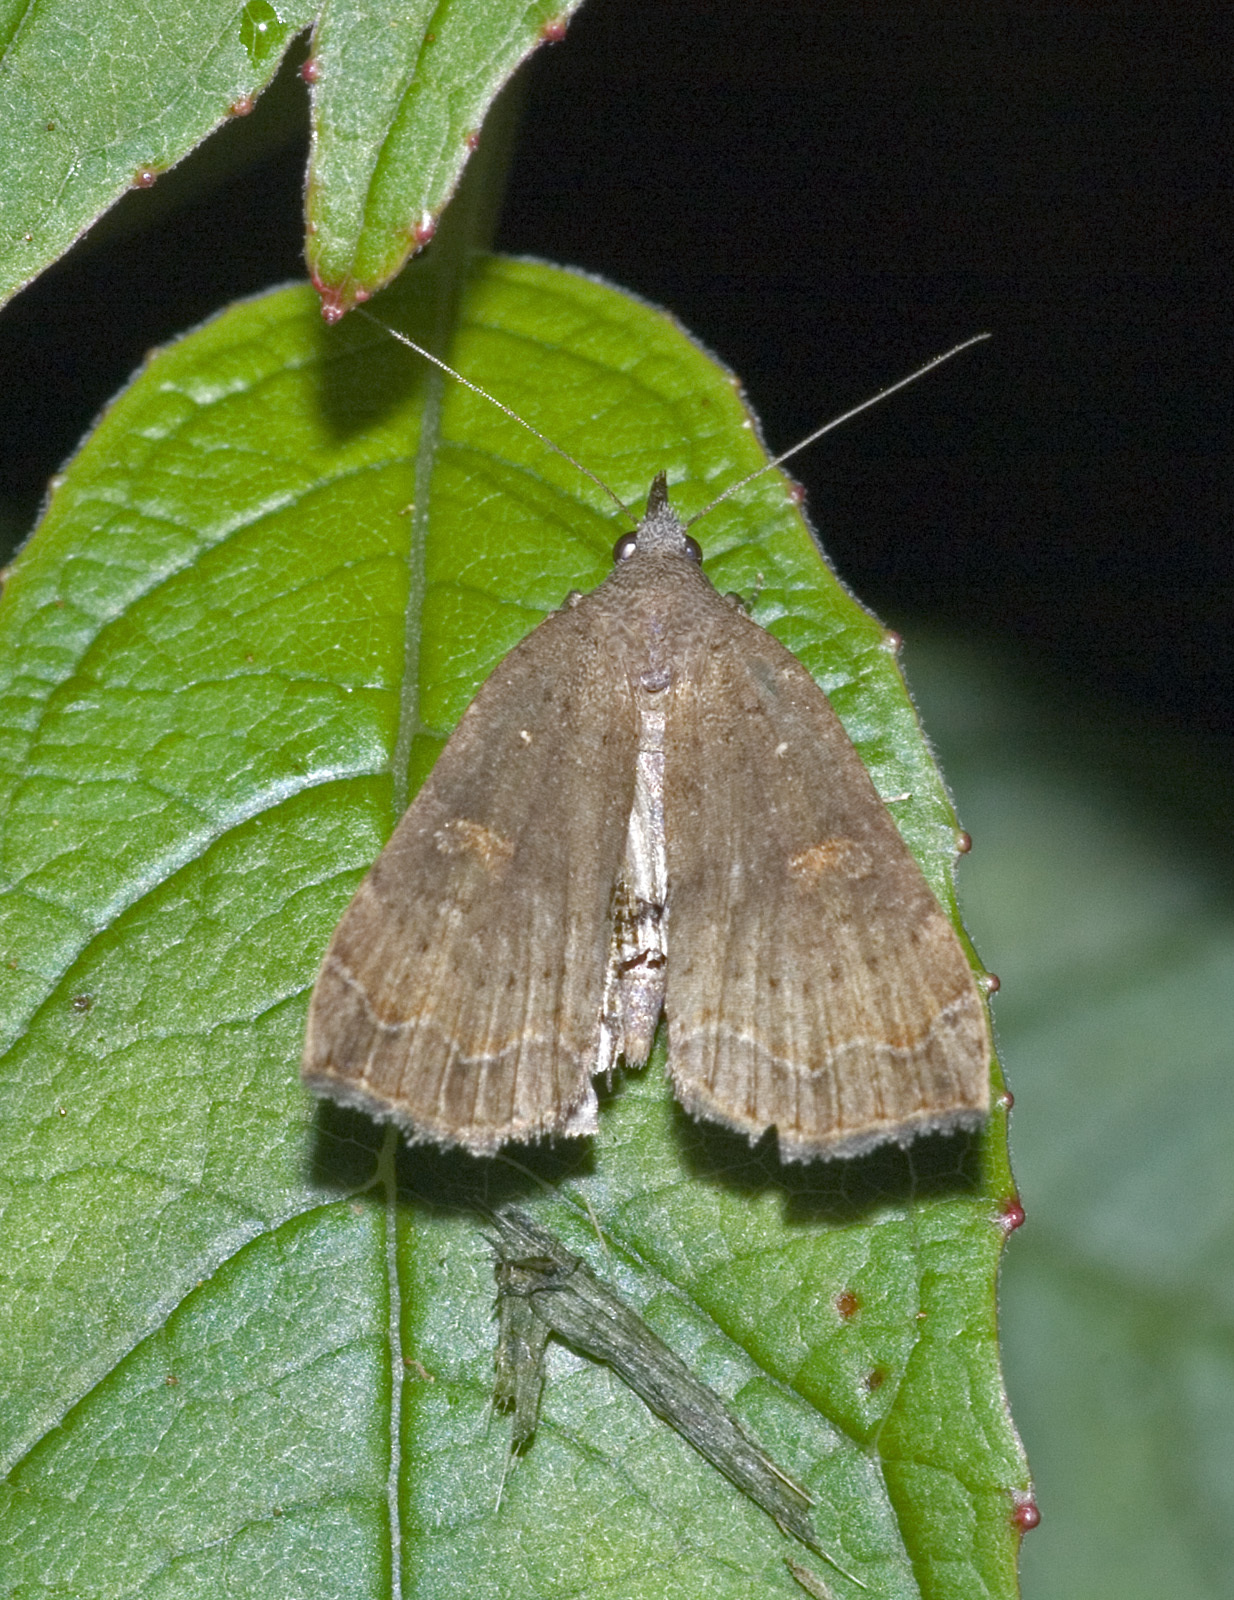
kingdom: Animalia
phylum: Arthropoda
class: Insecta
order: Lepidoptera
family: Erebidae
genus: Rhapsa
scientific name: Rhapsa scotosialis
